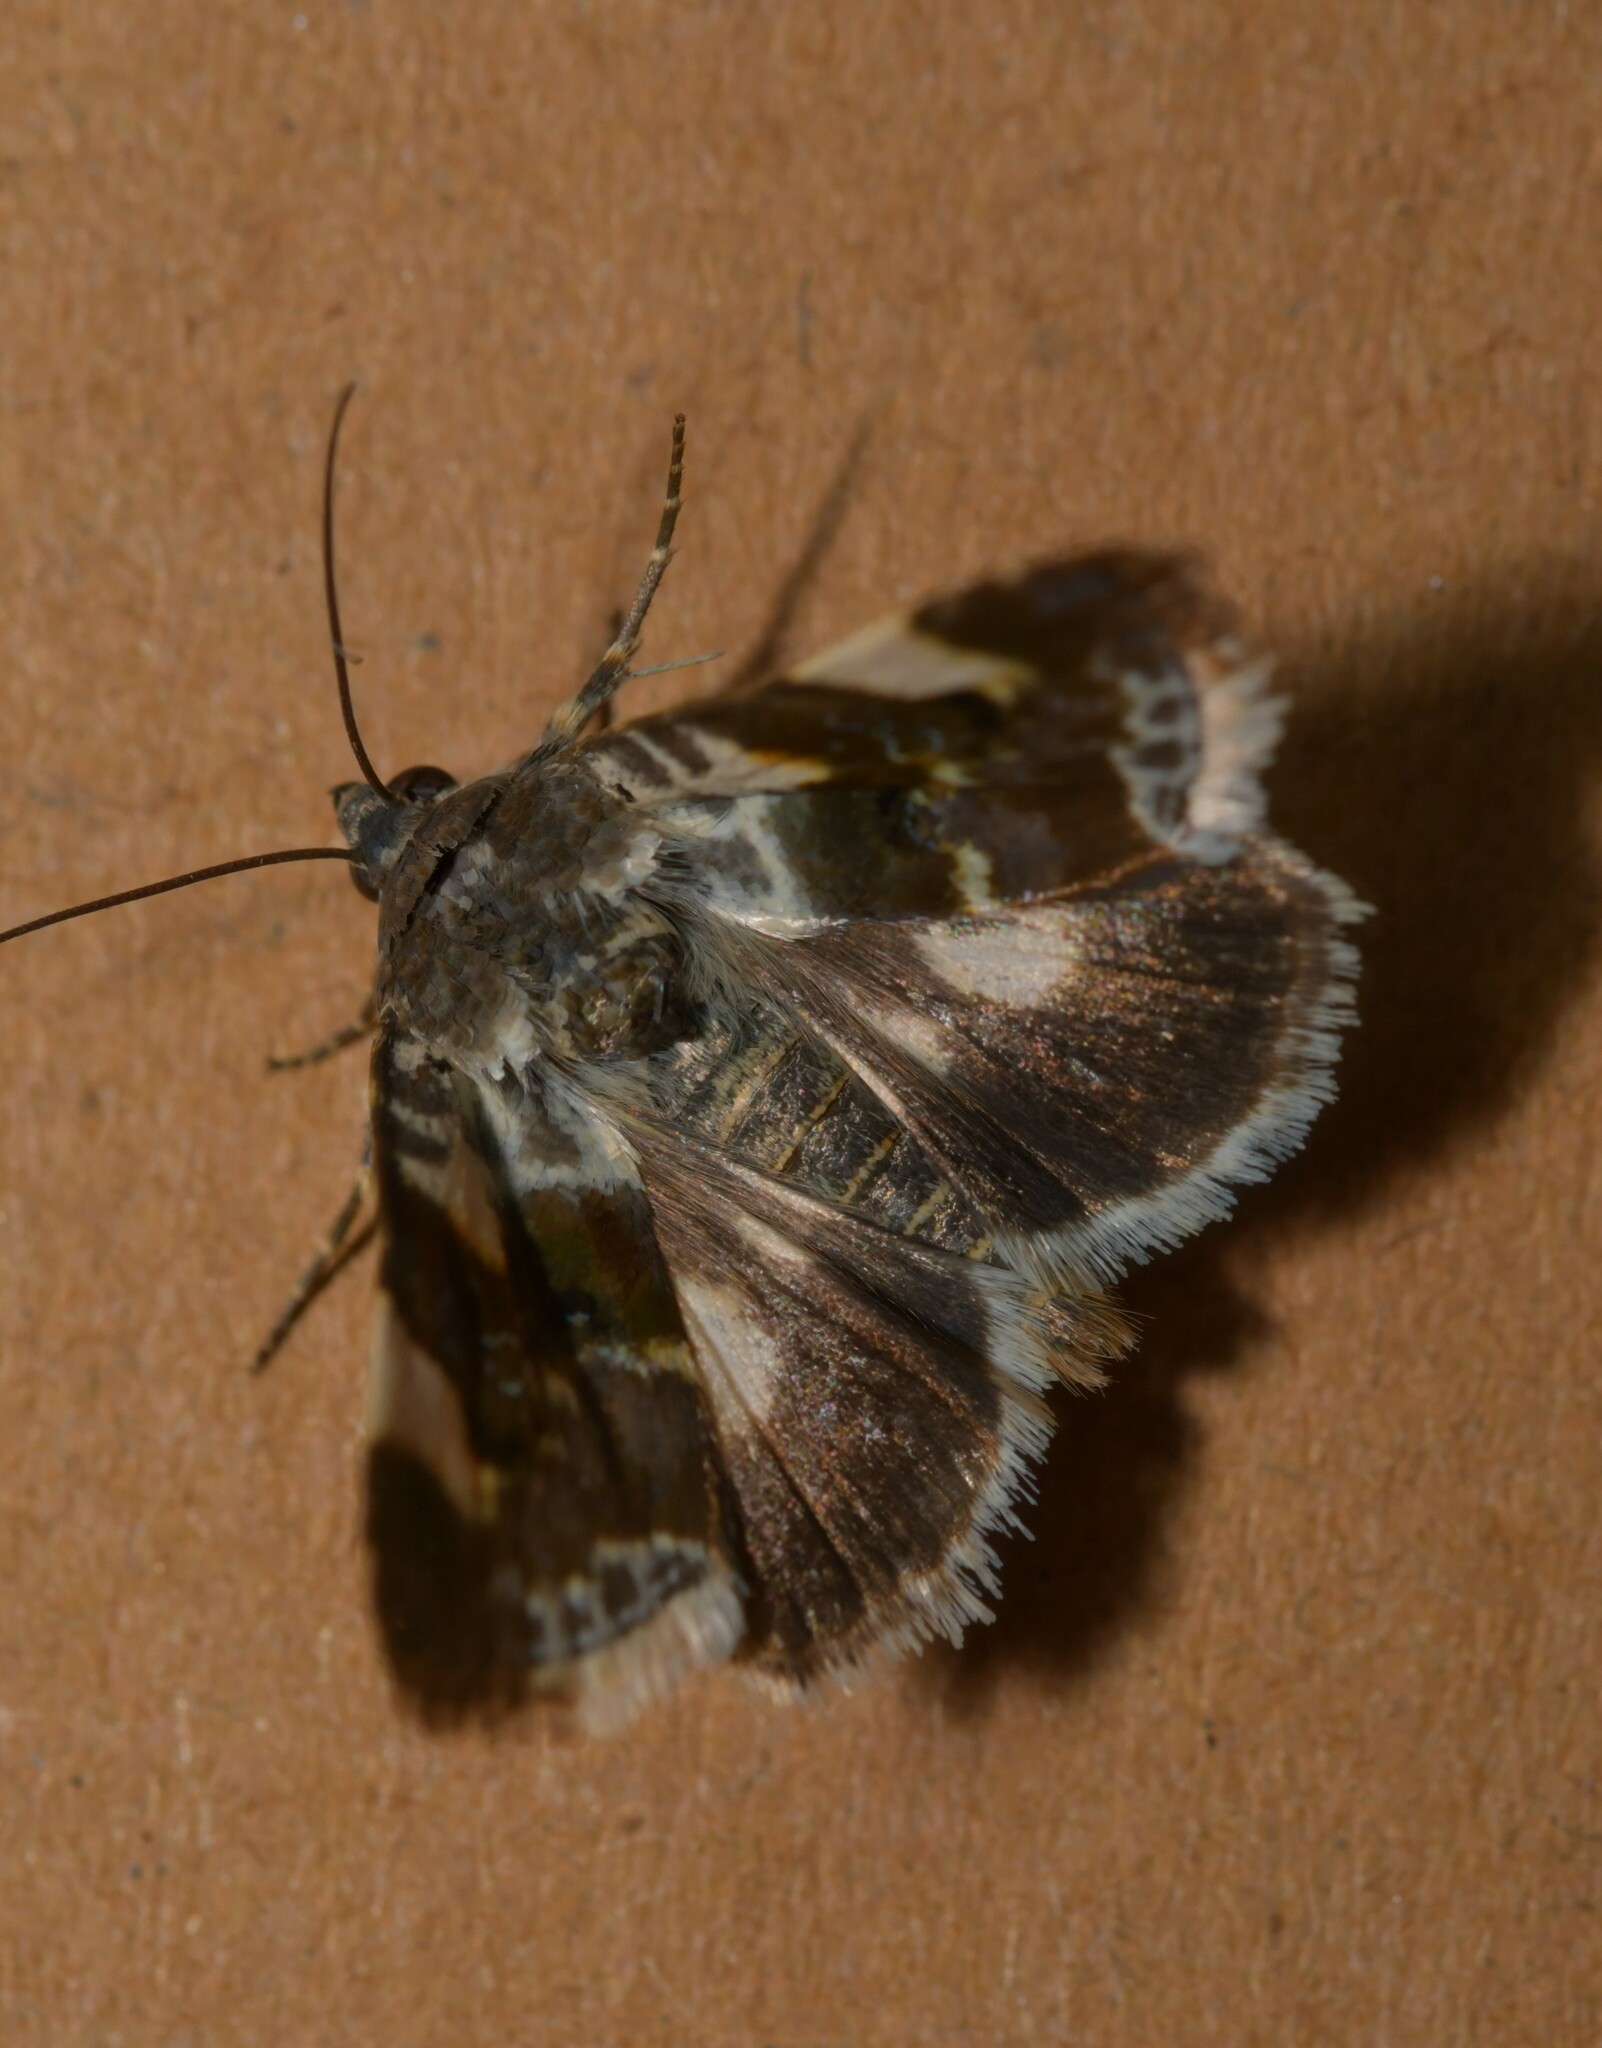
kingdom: Animalia
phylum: Arthropoda
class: Insecta
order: Lepidoptera
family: Noctuidae
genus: Acontia
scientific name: Acontia lucida
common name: Pale shoulder
